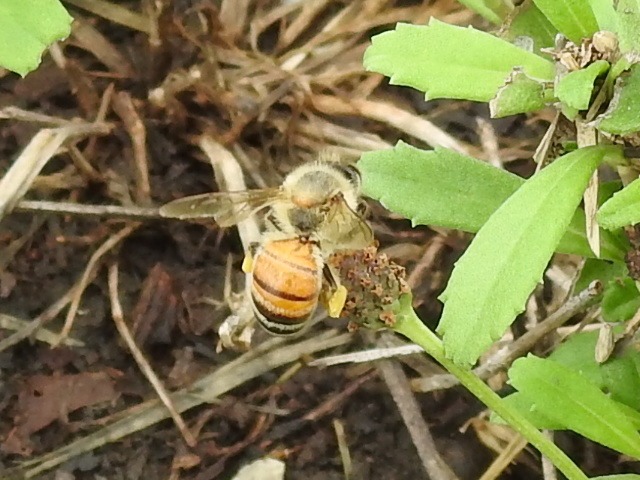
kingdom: Animalia
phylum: Arthropoda
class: Insecta
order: Hymenoptera
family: Apidae
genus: Apis
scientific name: Apis mellifera
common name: Honey bee
